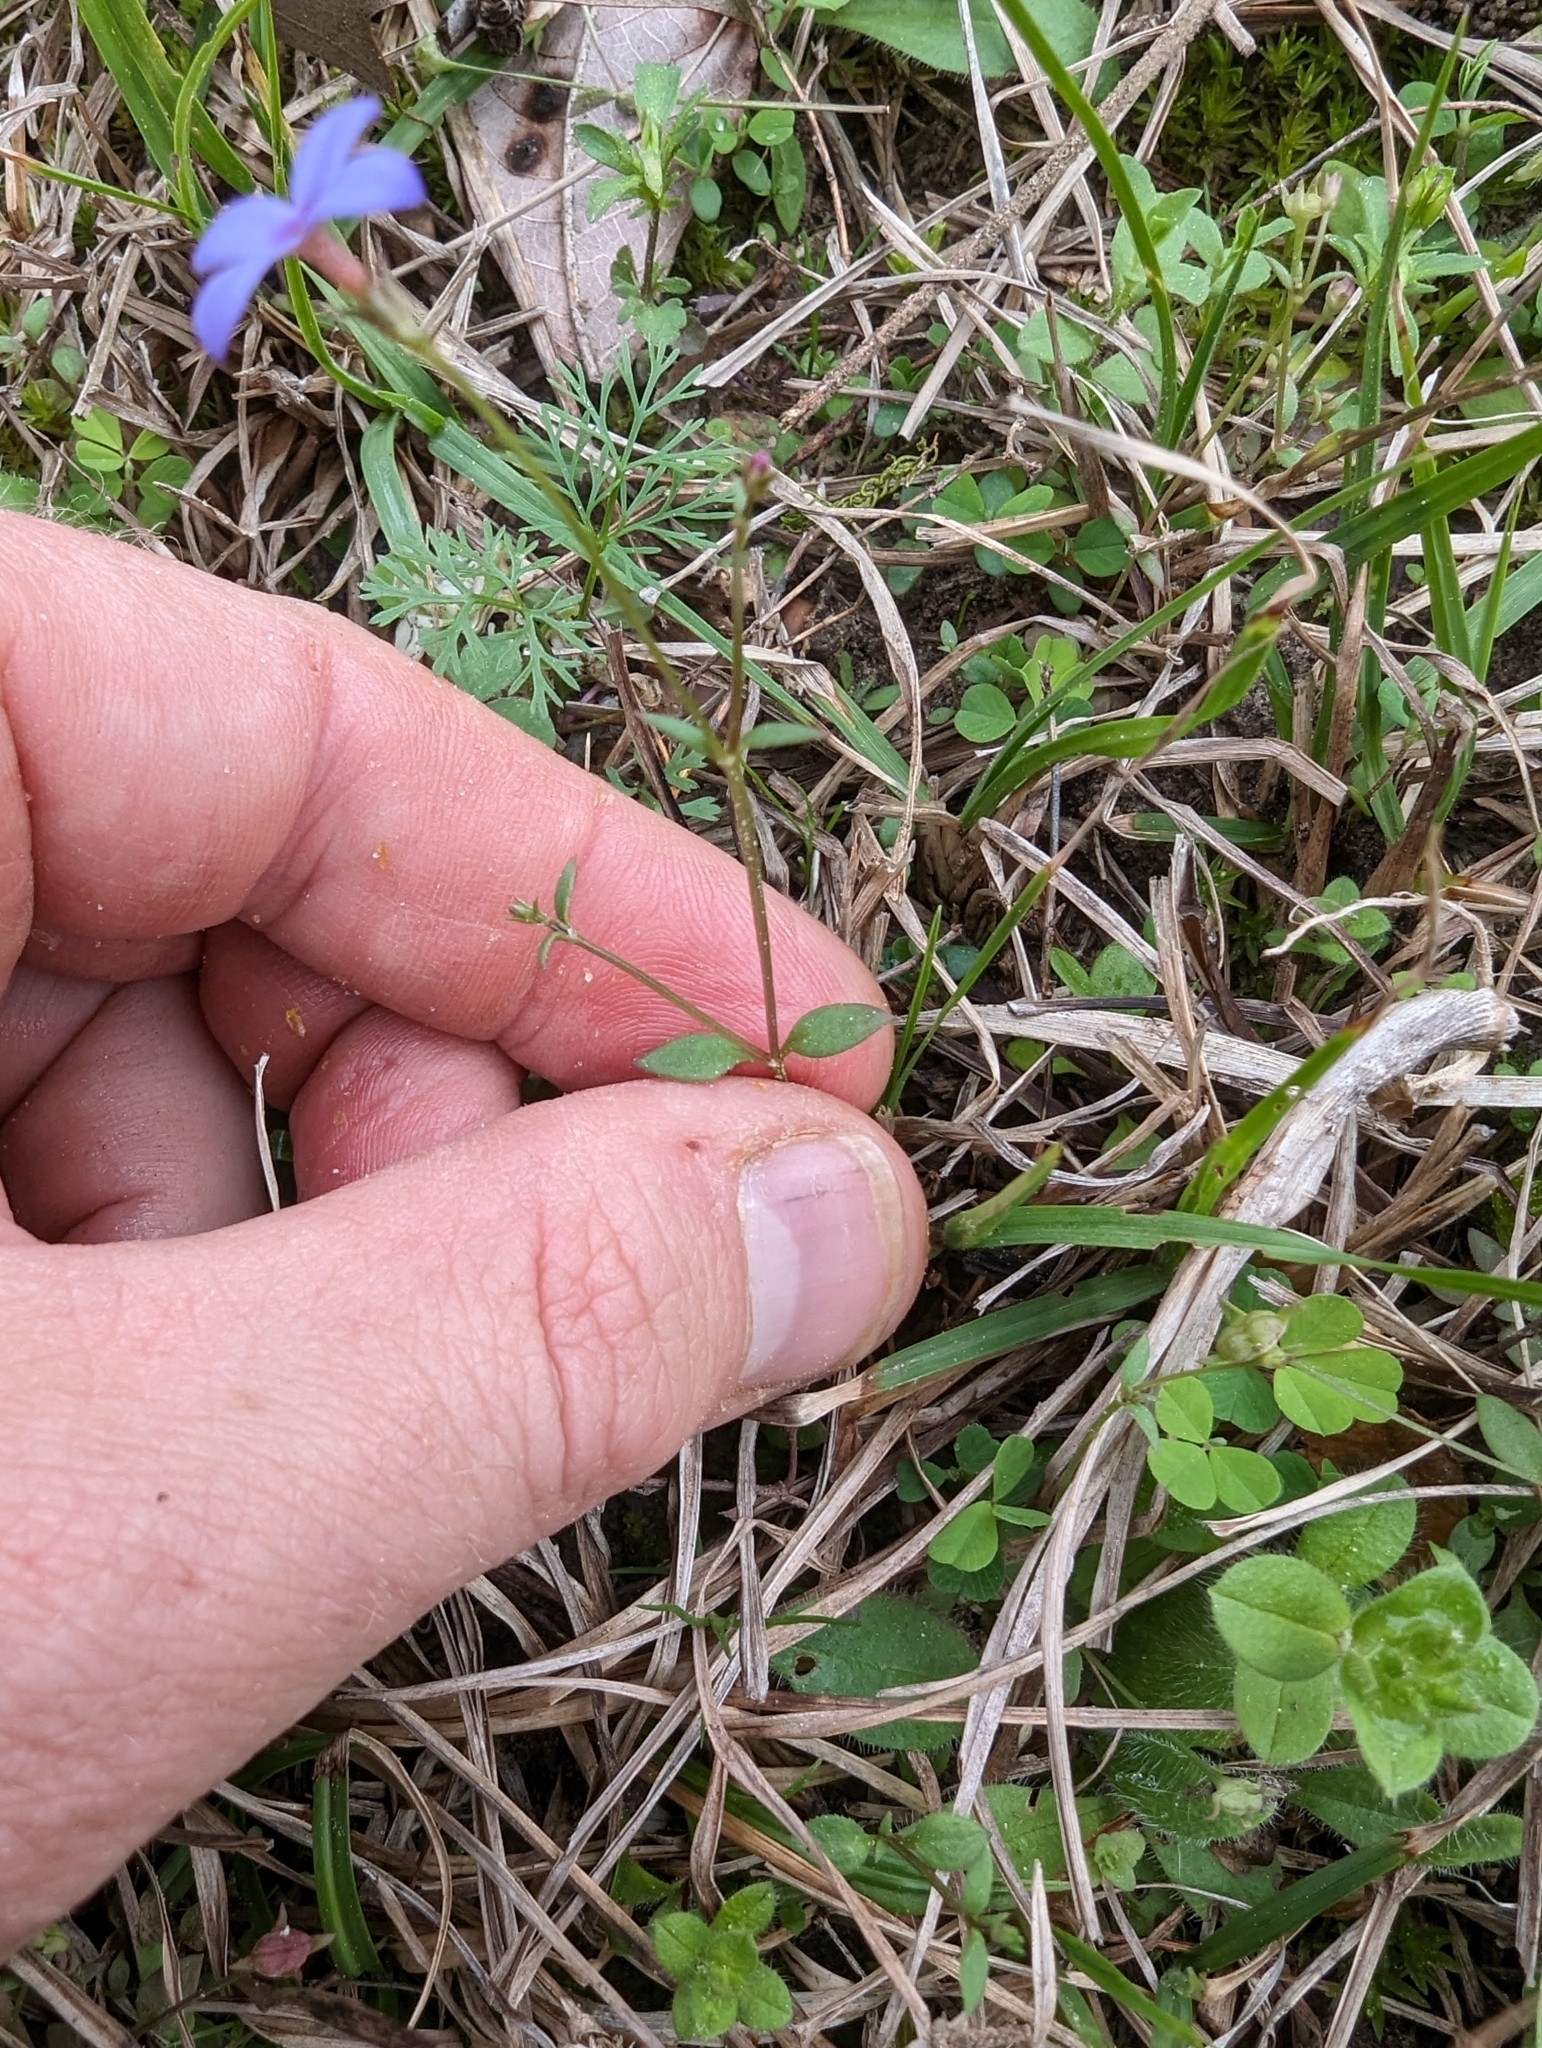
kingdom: Plantae
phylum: Tracheophyta
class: Magnoliopsida
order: Gentianales
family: Rubiaceae
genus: Houstonia
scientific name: Houstonia pusilla
